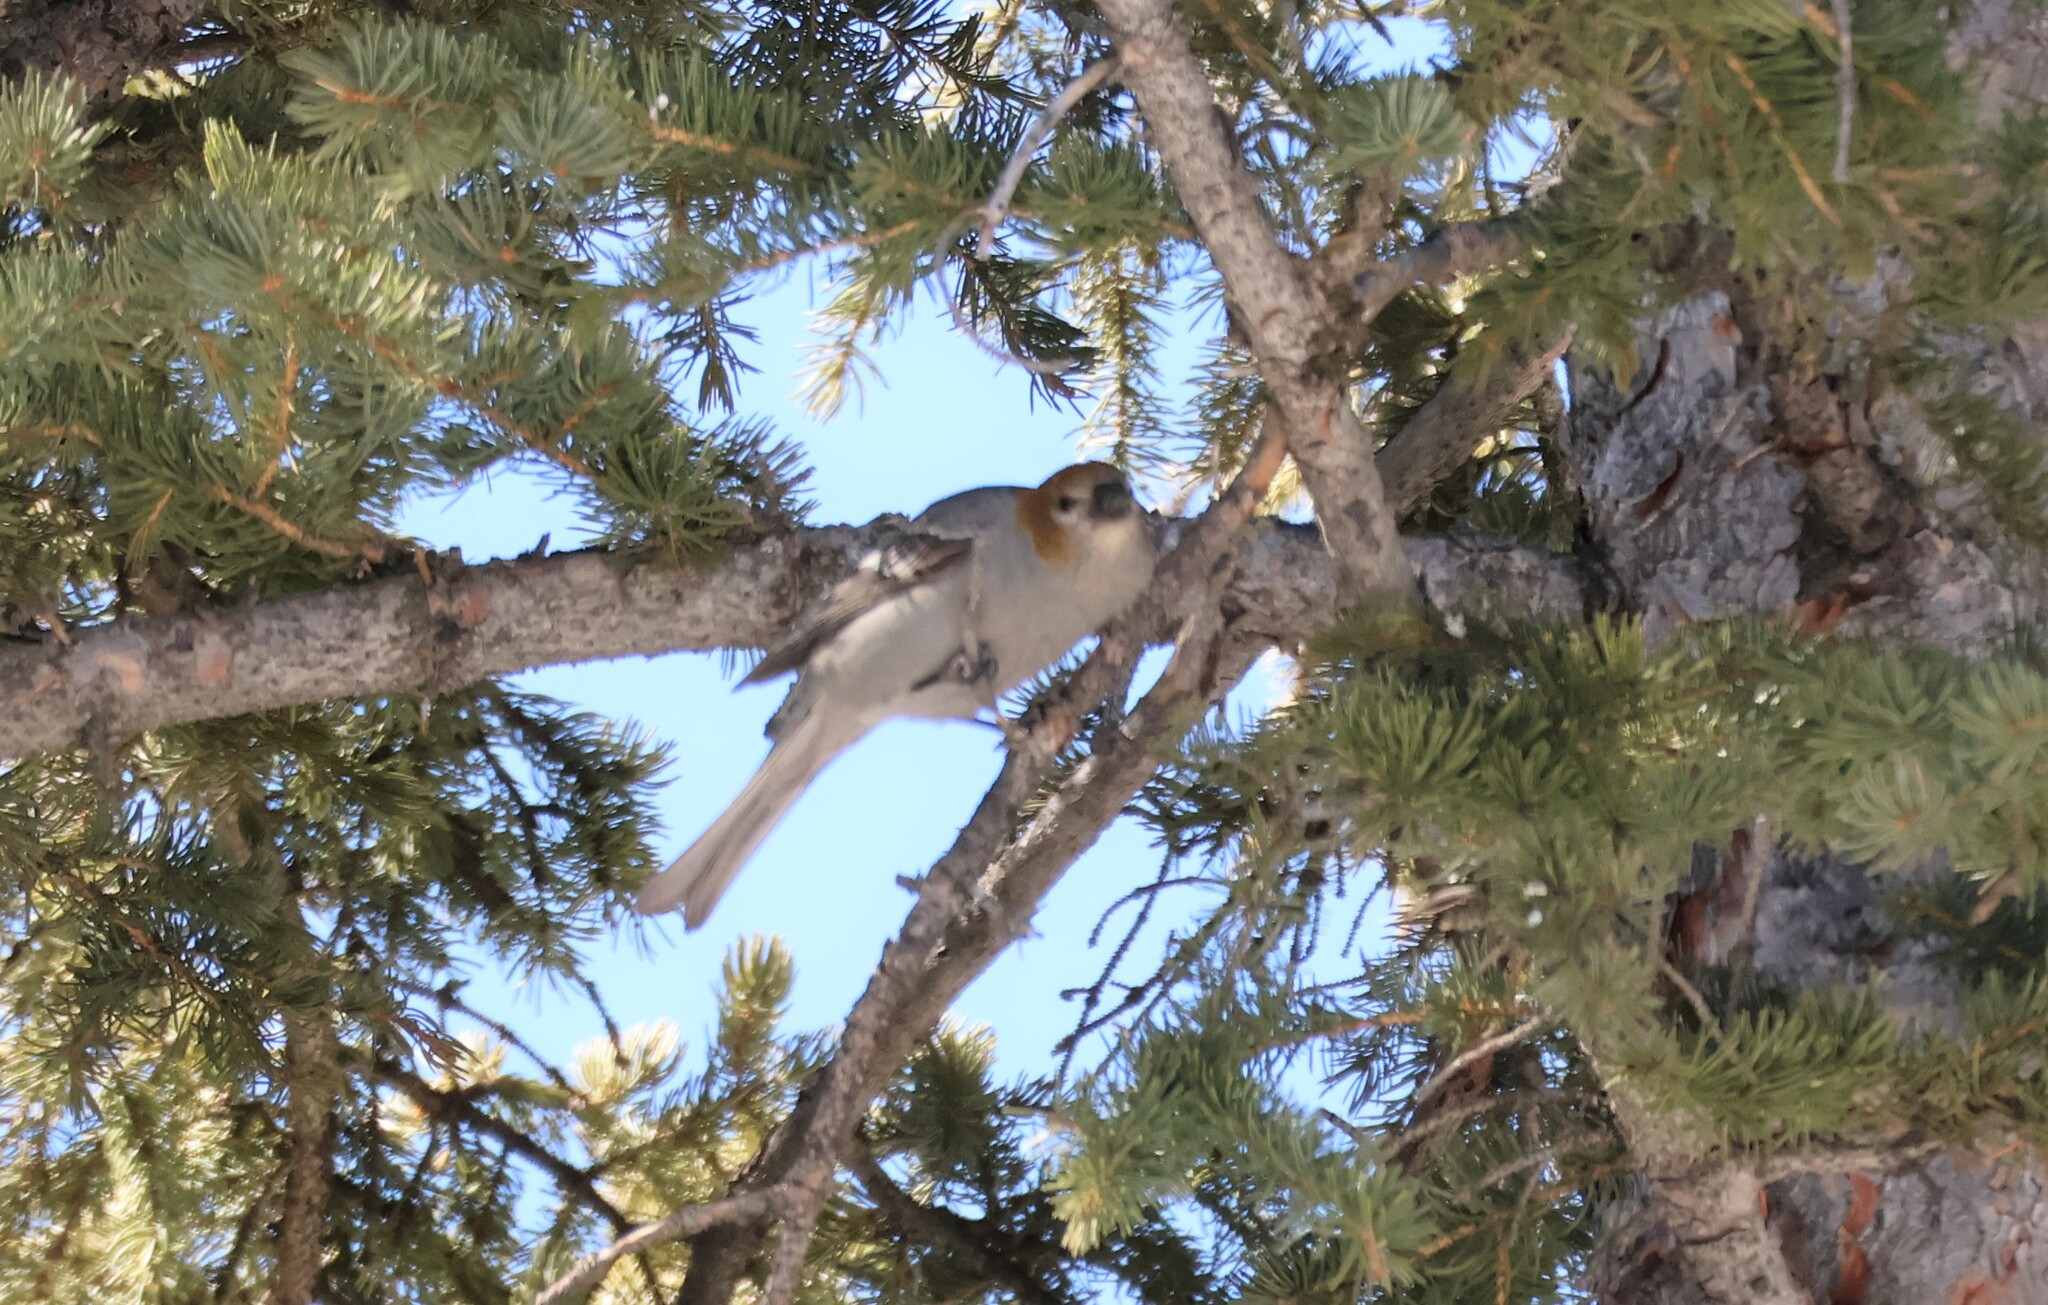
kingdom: Animalia
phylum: Chordata
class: Aves
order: Passeriformes
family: Fringillidae
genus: Pinicola
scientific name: Pinicola enucleator
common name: Pine grosbeak
